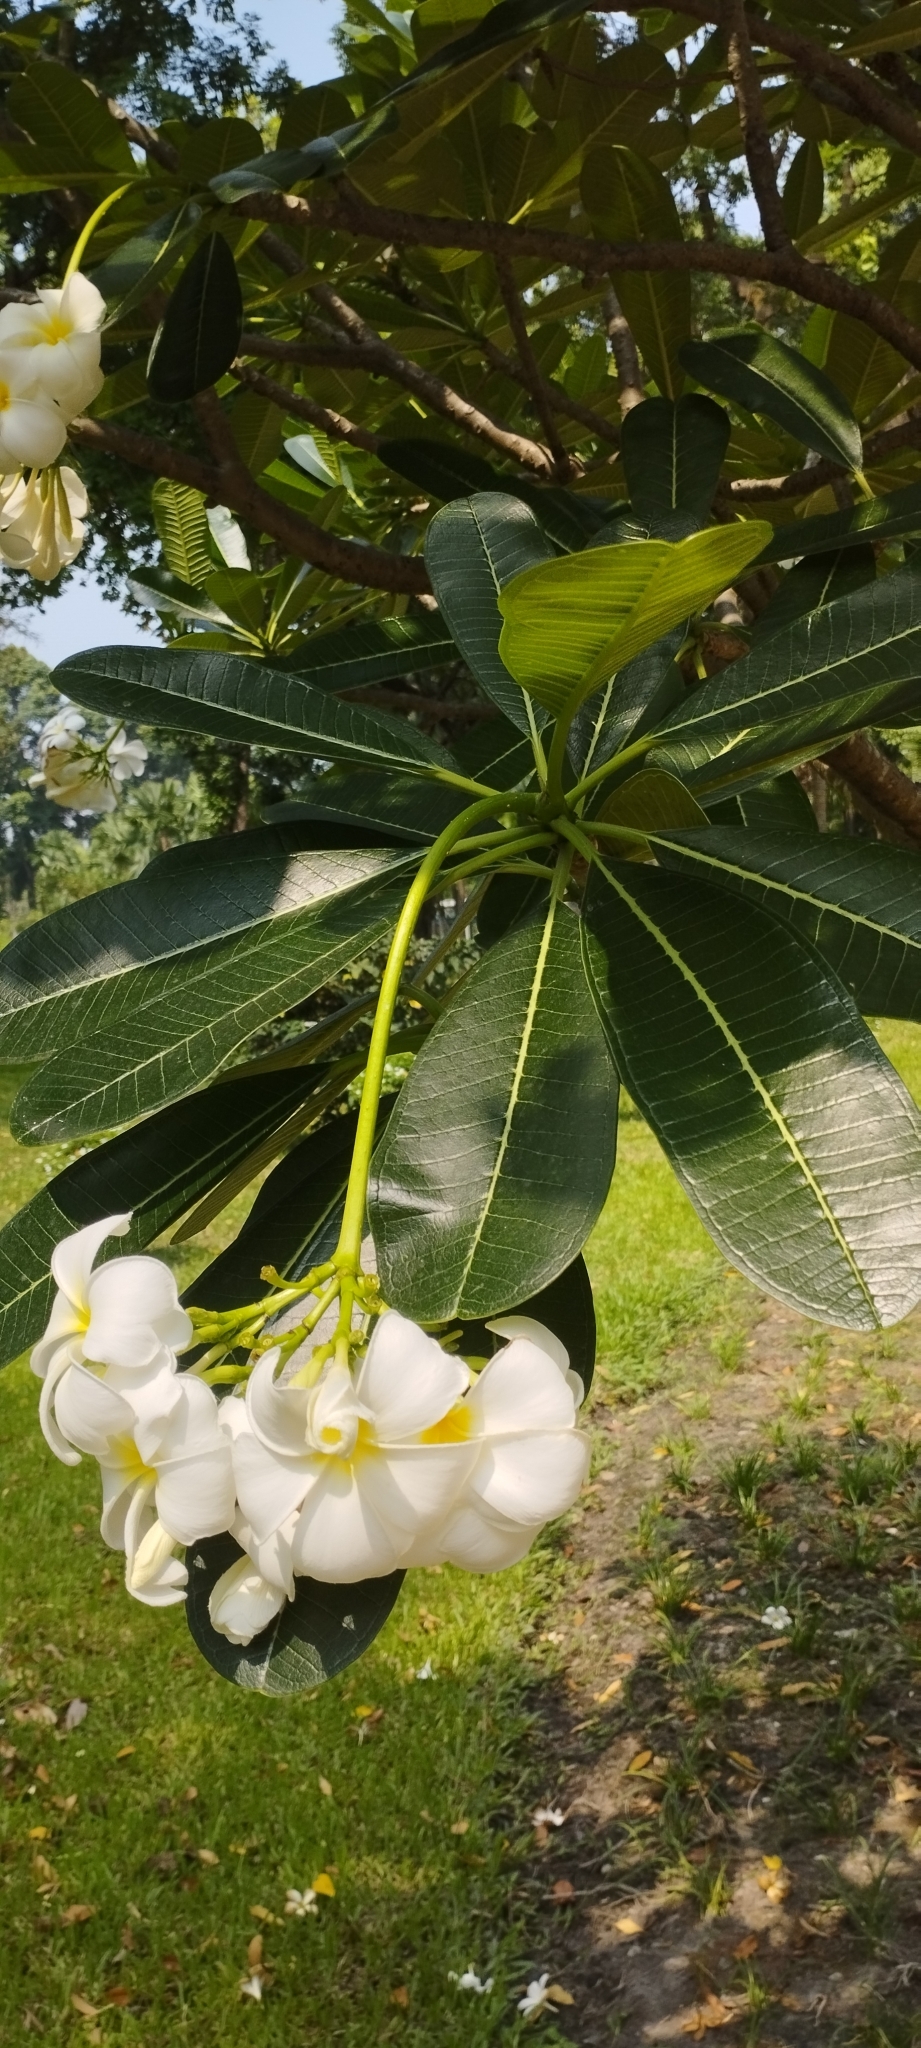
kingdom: Plantae
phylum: Tracheophyta
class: Magnoliopsida
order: Gentianales
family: Apocynaceae
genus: Plumeria
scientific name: Plumeria obtusa
